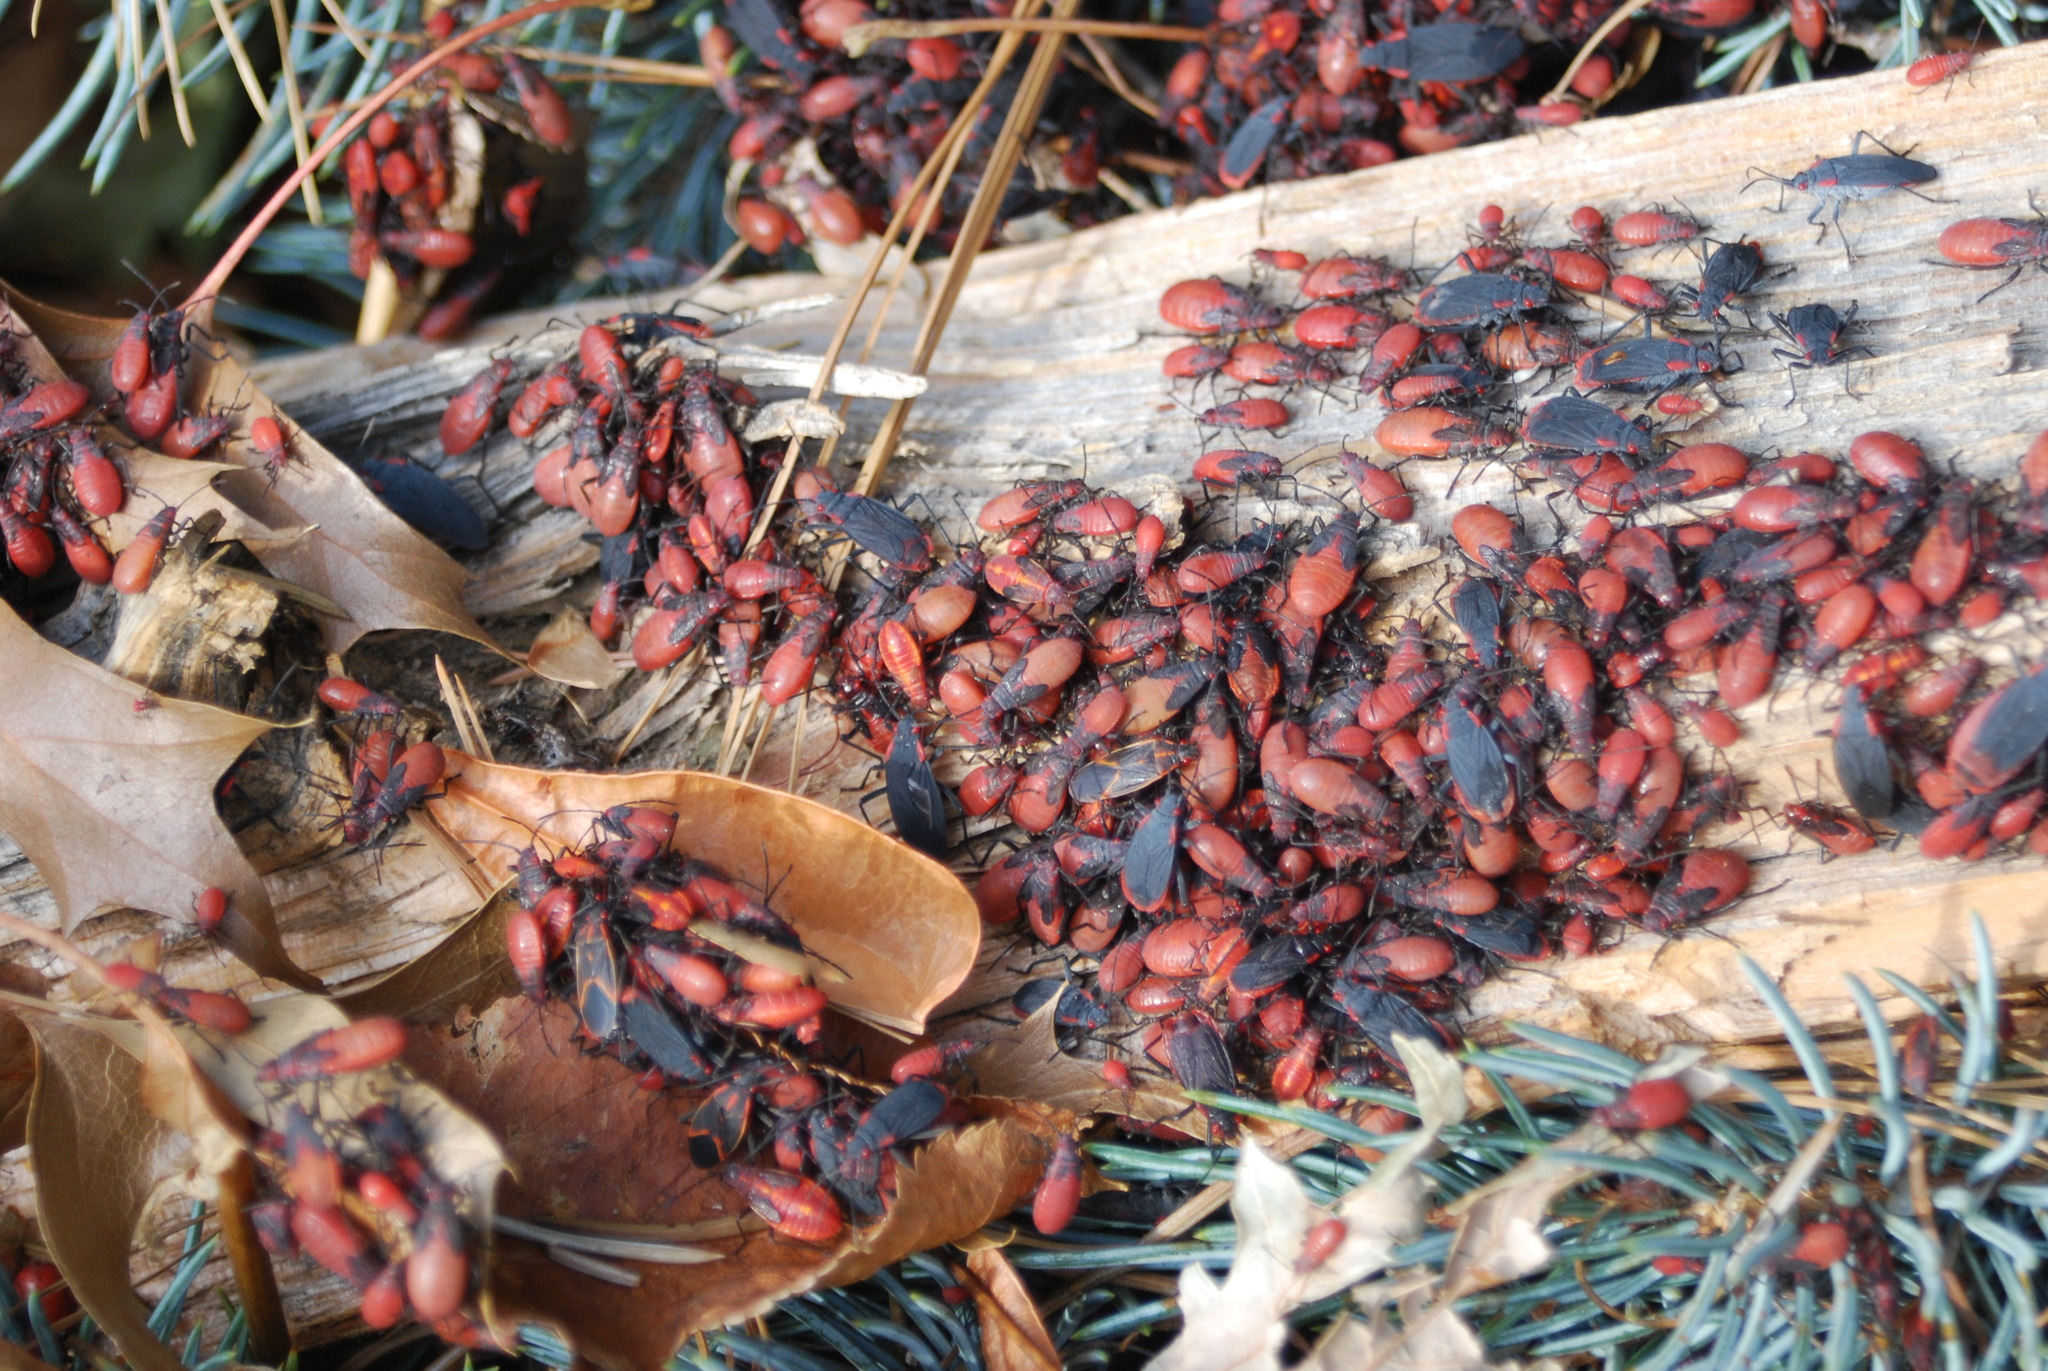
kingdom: Animalia
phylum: Arthropoda
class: Insecta
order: Hemiptera
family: Rhopalidae
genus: Jadera
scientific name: Jadera haematoloma
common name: Red-shouldered bug
